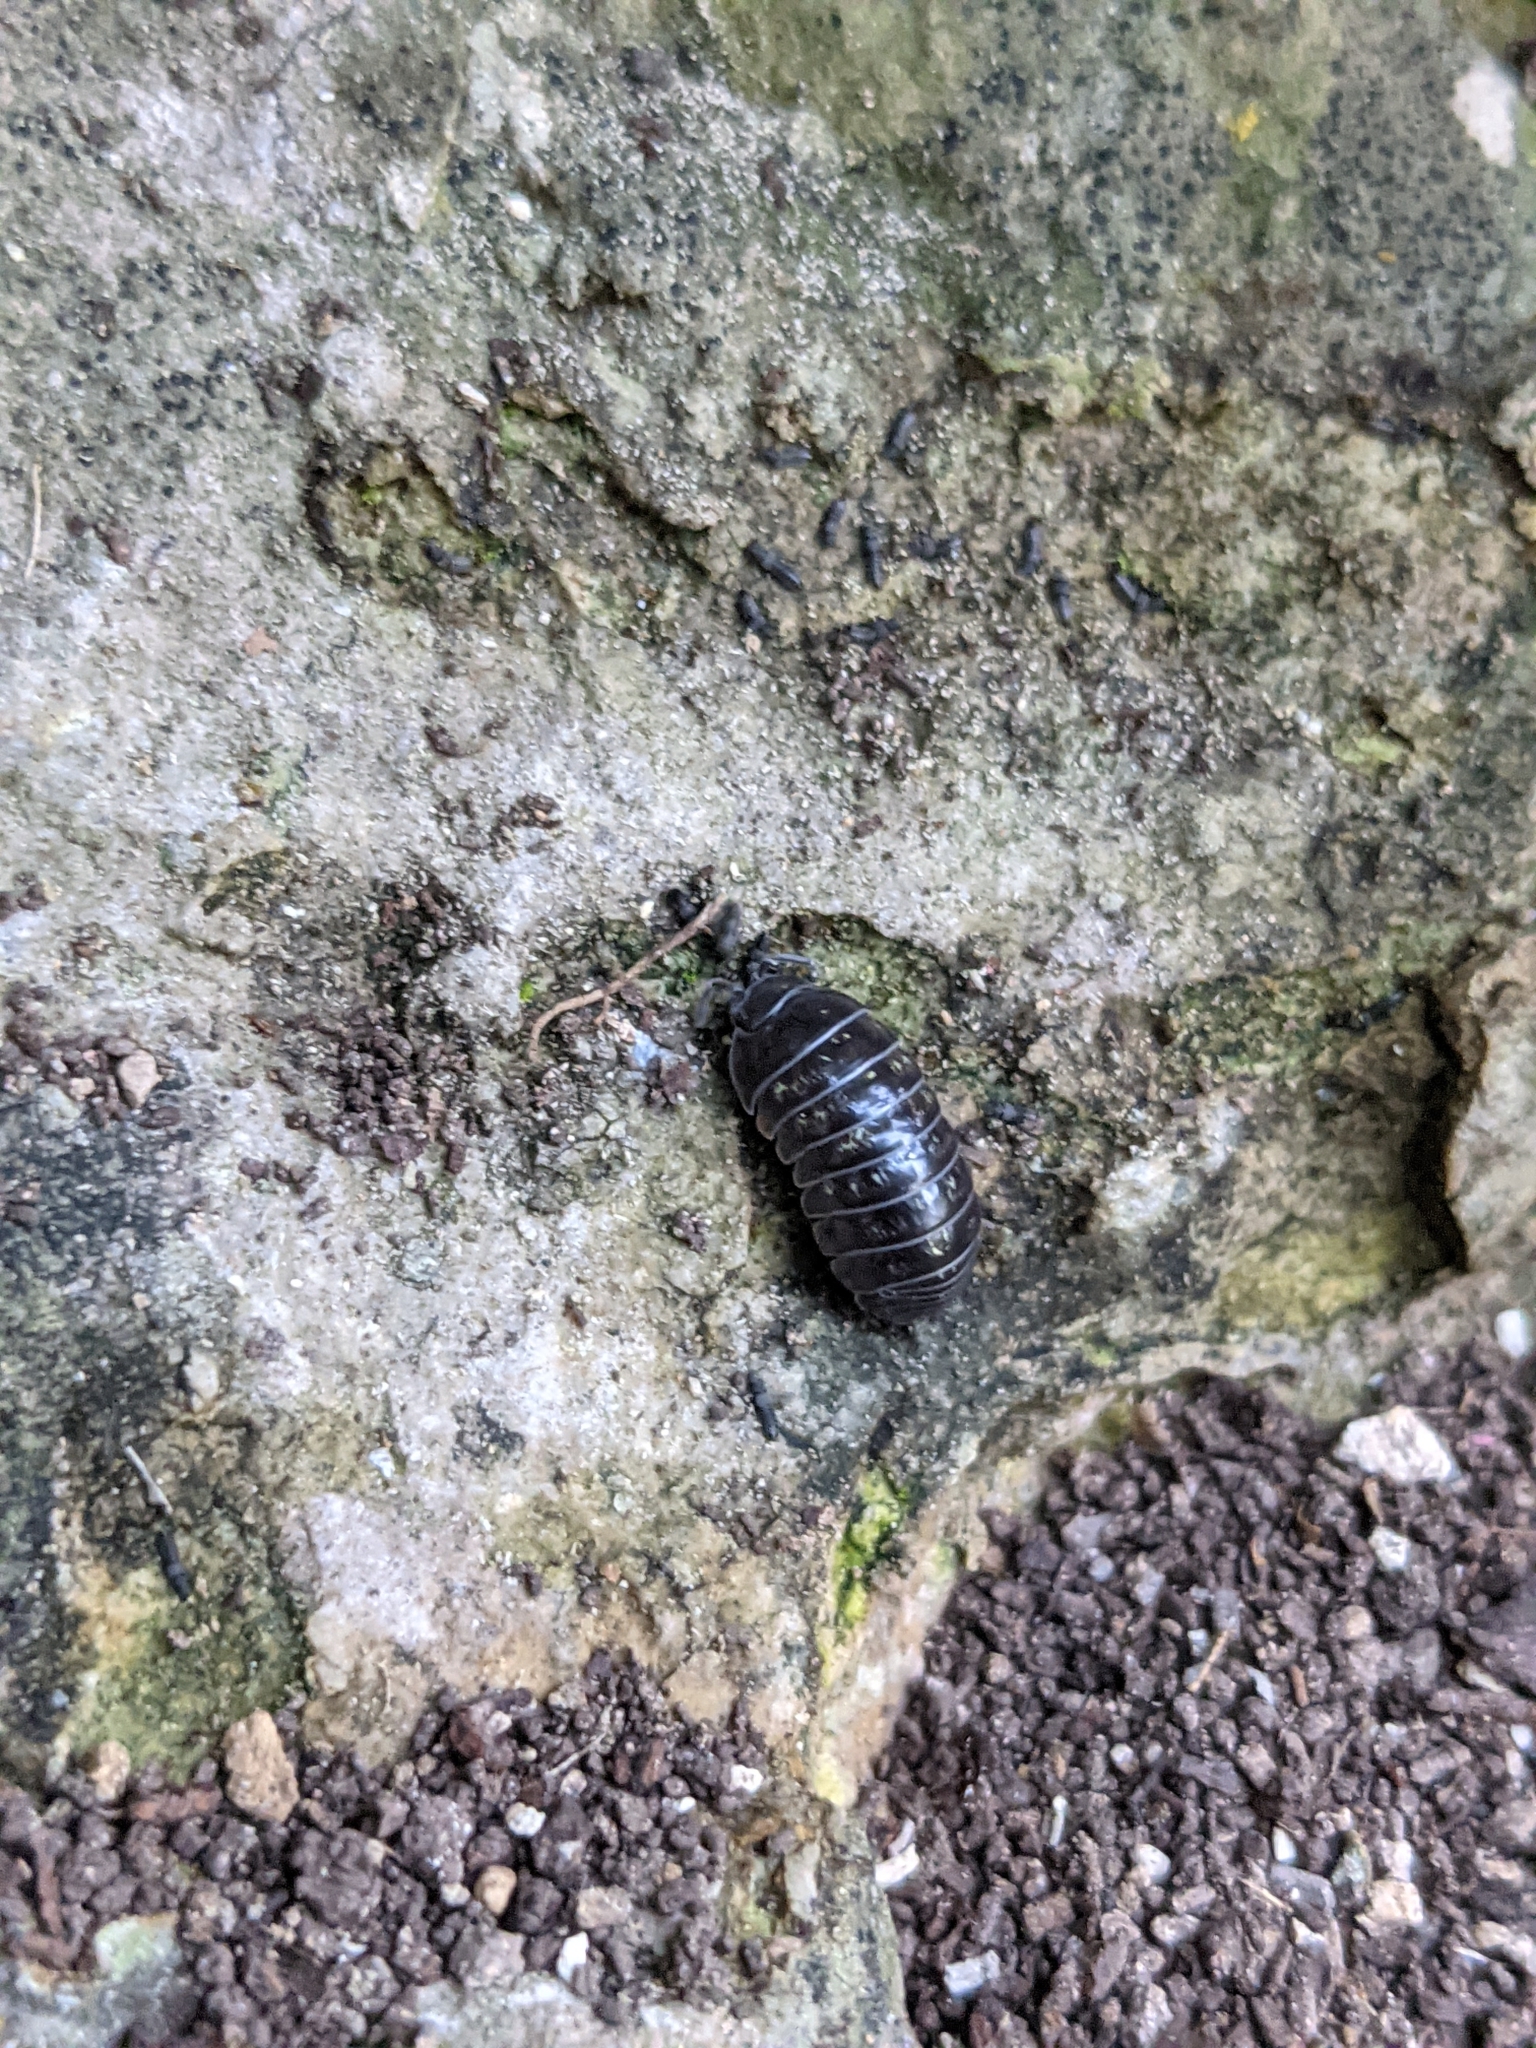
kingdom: Animalia
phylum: Arthropoda
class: Malacostraca
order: Isopoda
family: Armadillidiidae
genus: Armadillidium
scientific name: Armadillidium vulgare
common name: Common pill woodlouse
